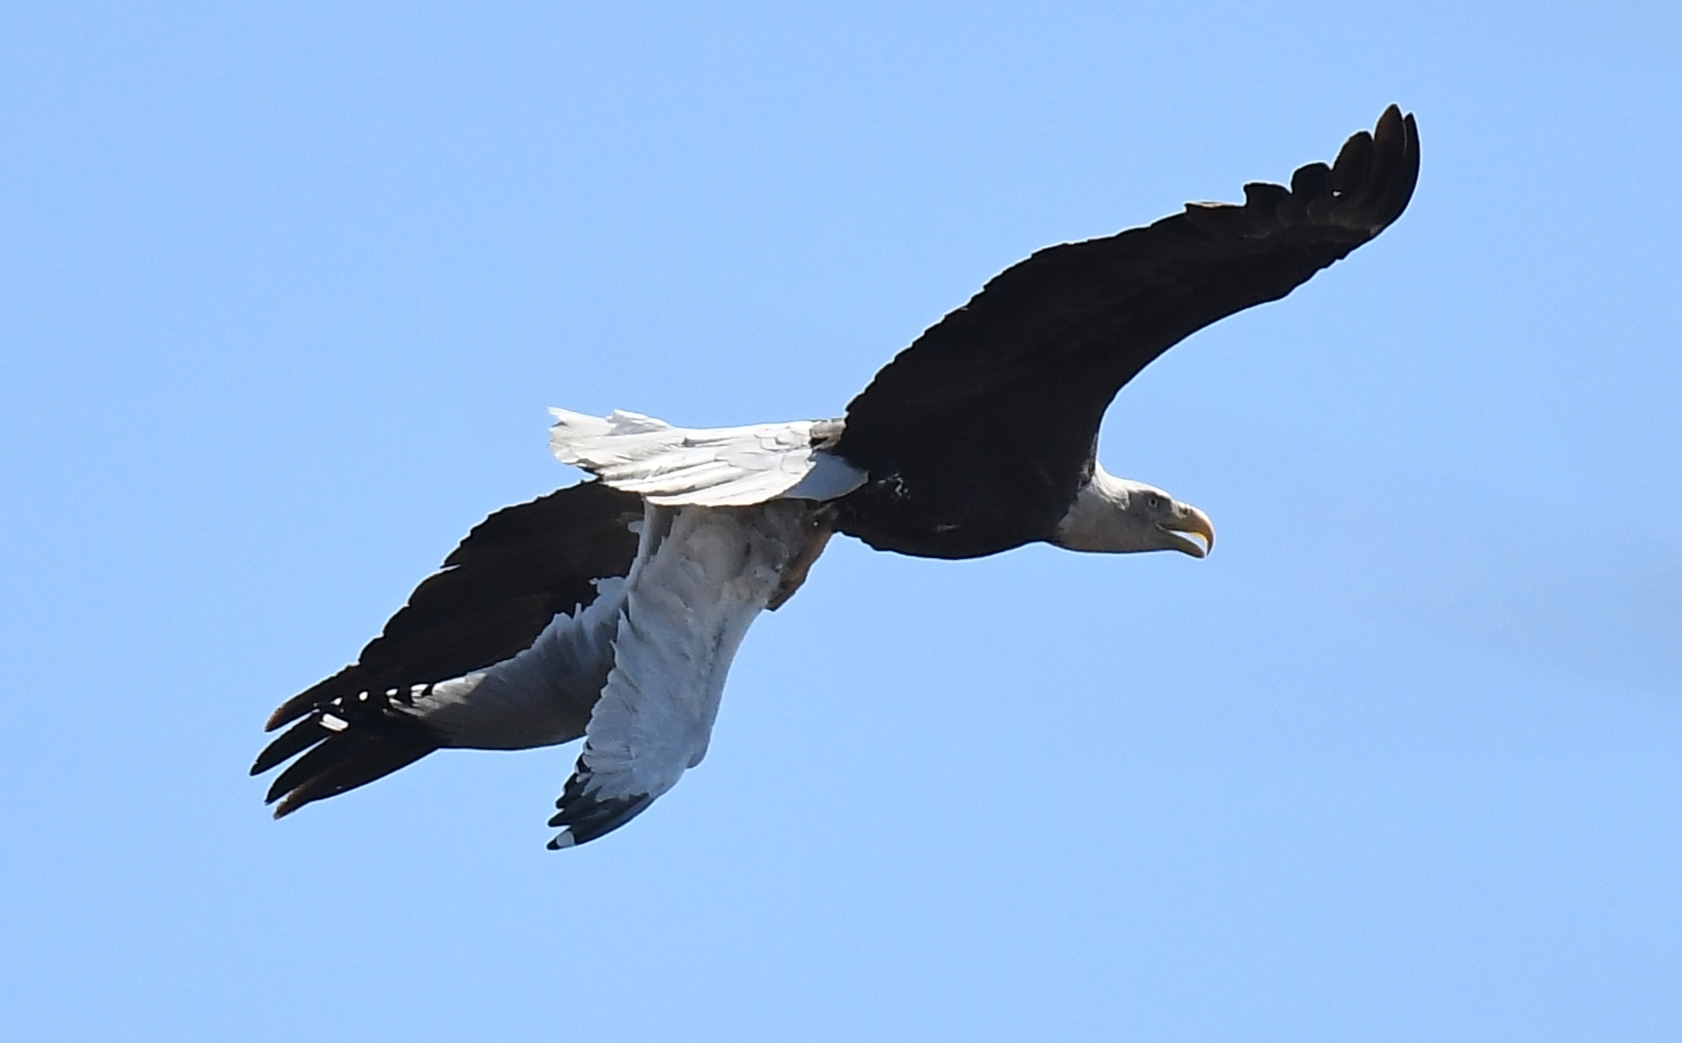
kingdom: Animalia
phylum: Chordata
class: Aves
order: Accipitriformes
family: Accipitridae
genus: Haliaeetus
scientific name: Haliaeetus leucocephalus
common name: Bald eagle
